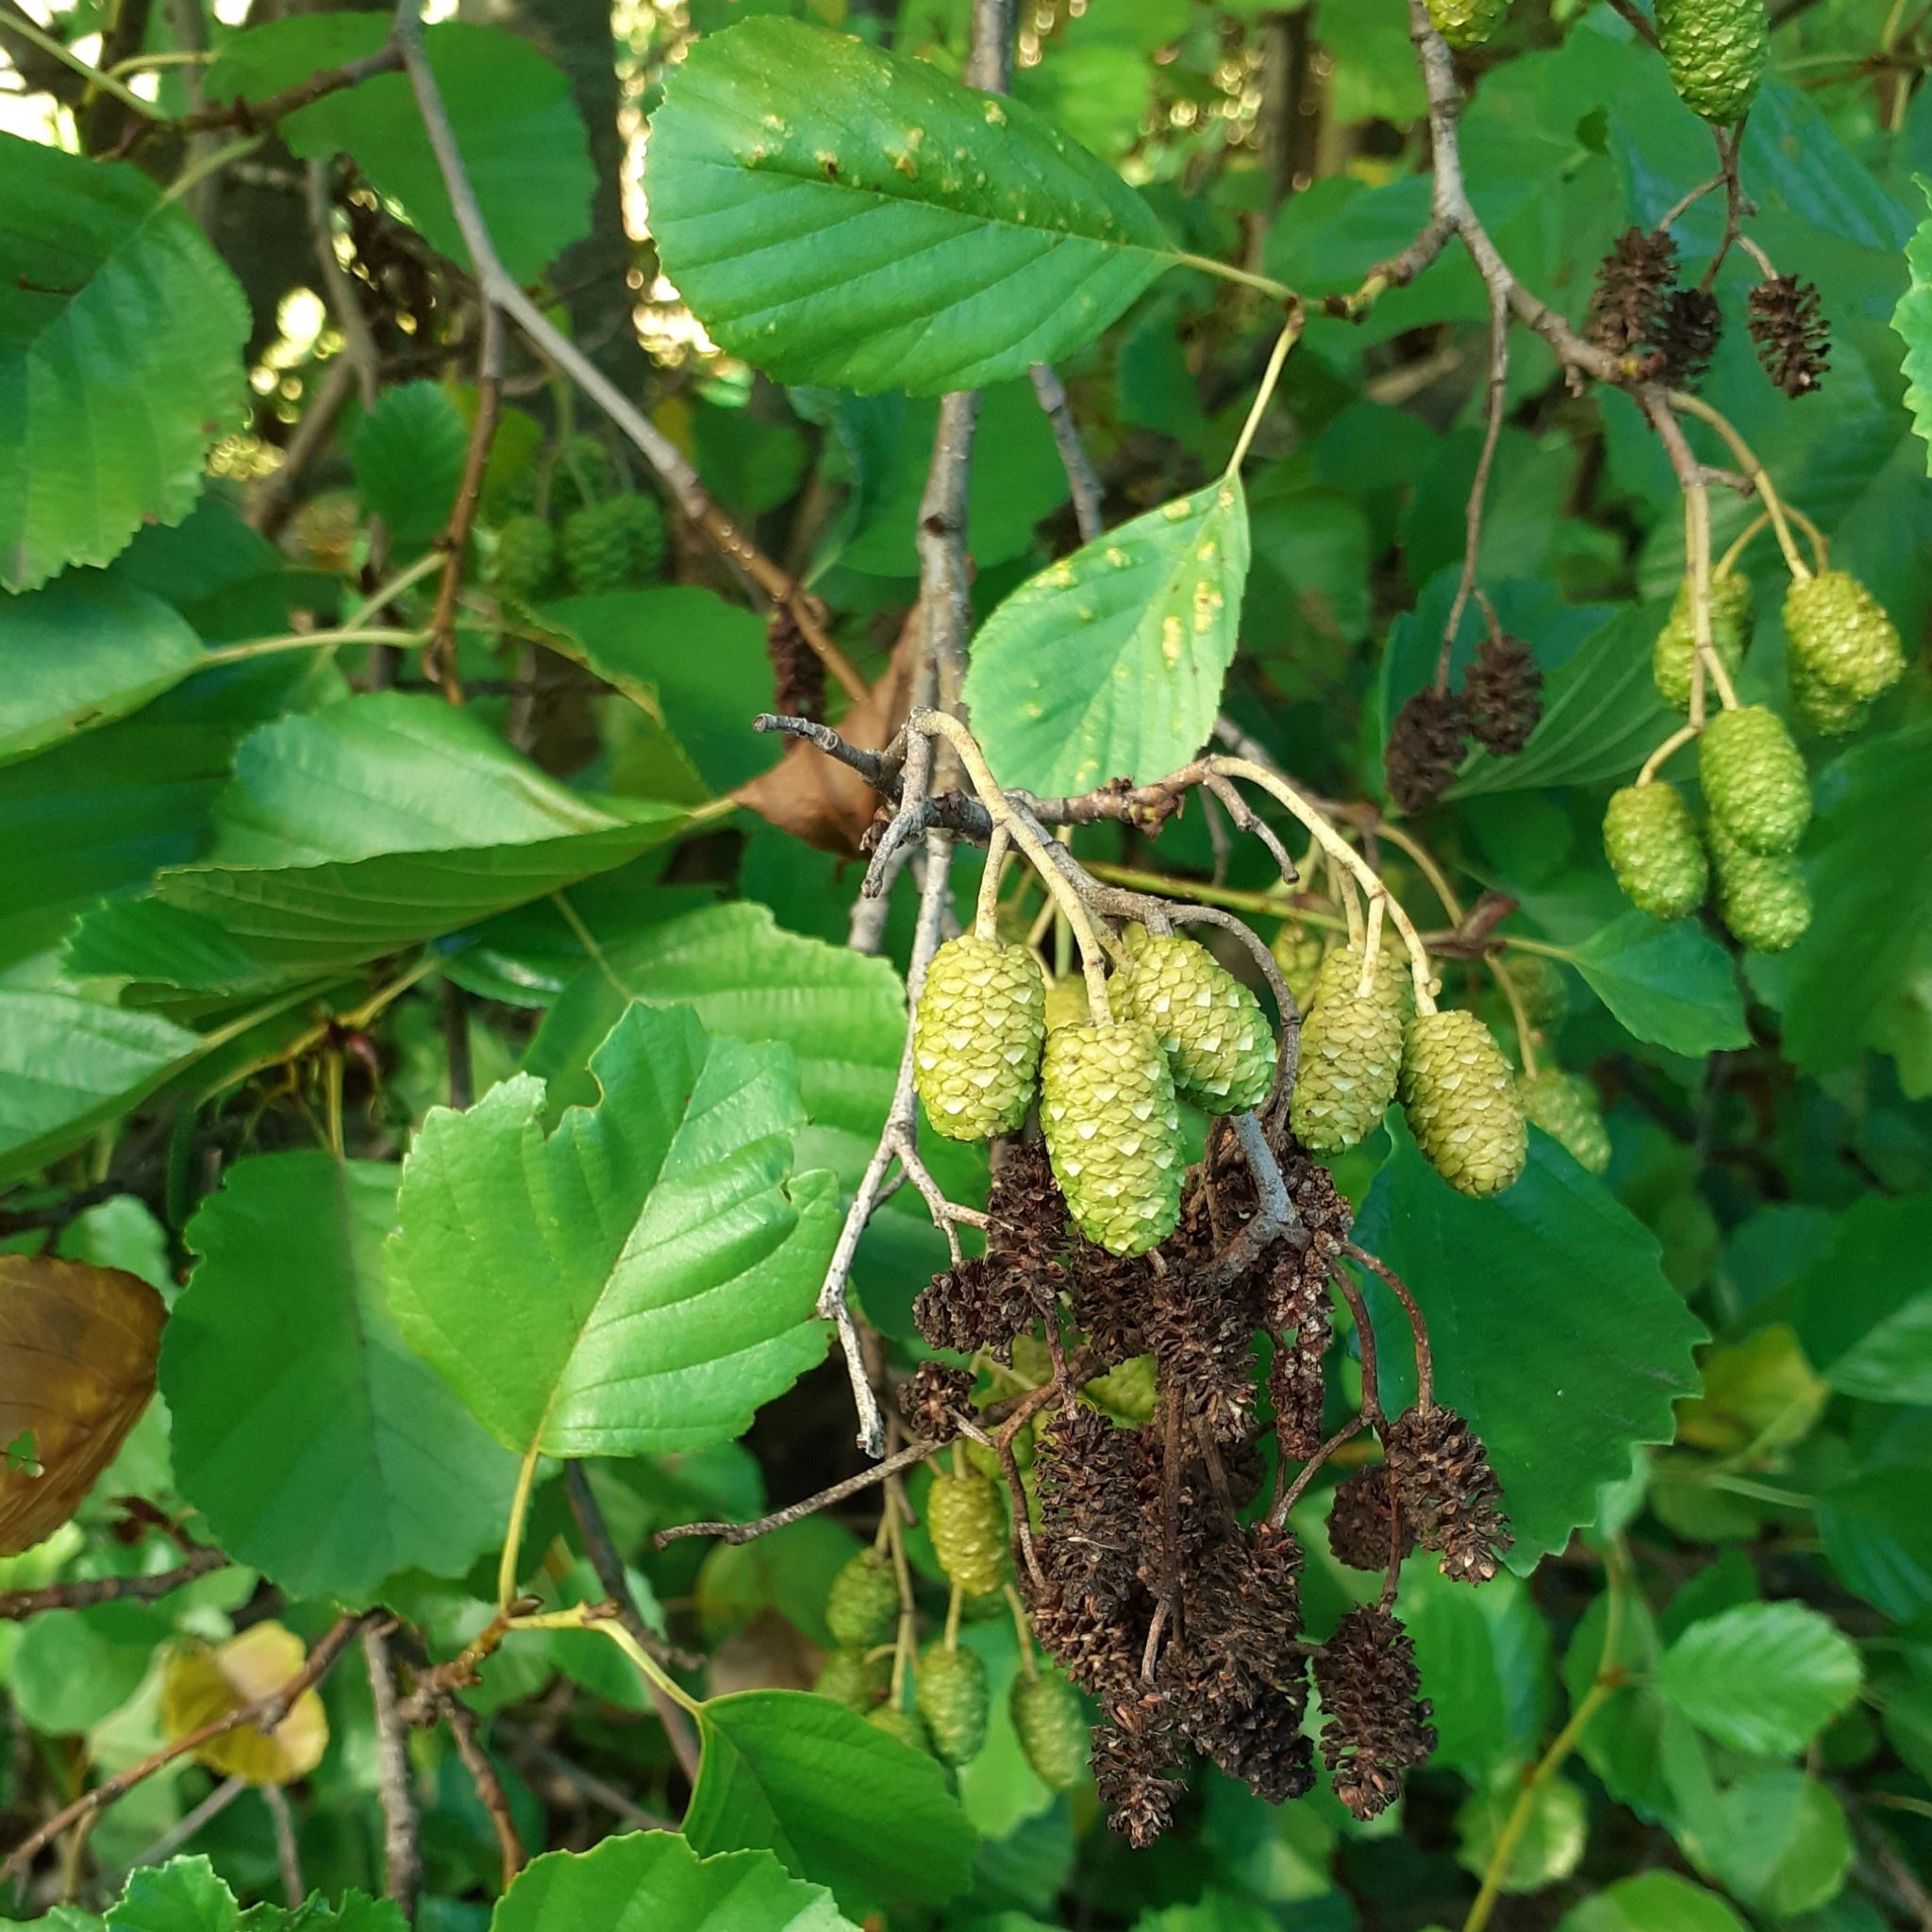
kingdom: Plantae
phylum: Tracheophyta
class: Magnoliopsida
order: Fagales
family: Betulaceae
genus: Alnus
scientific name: Alnus glutinosa
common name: Black alder
